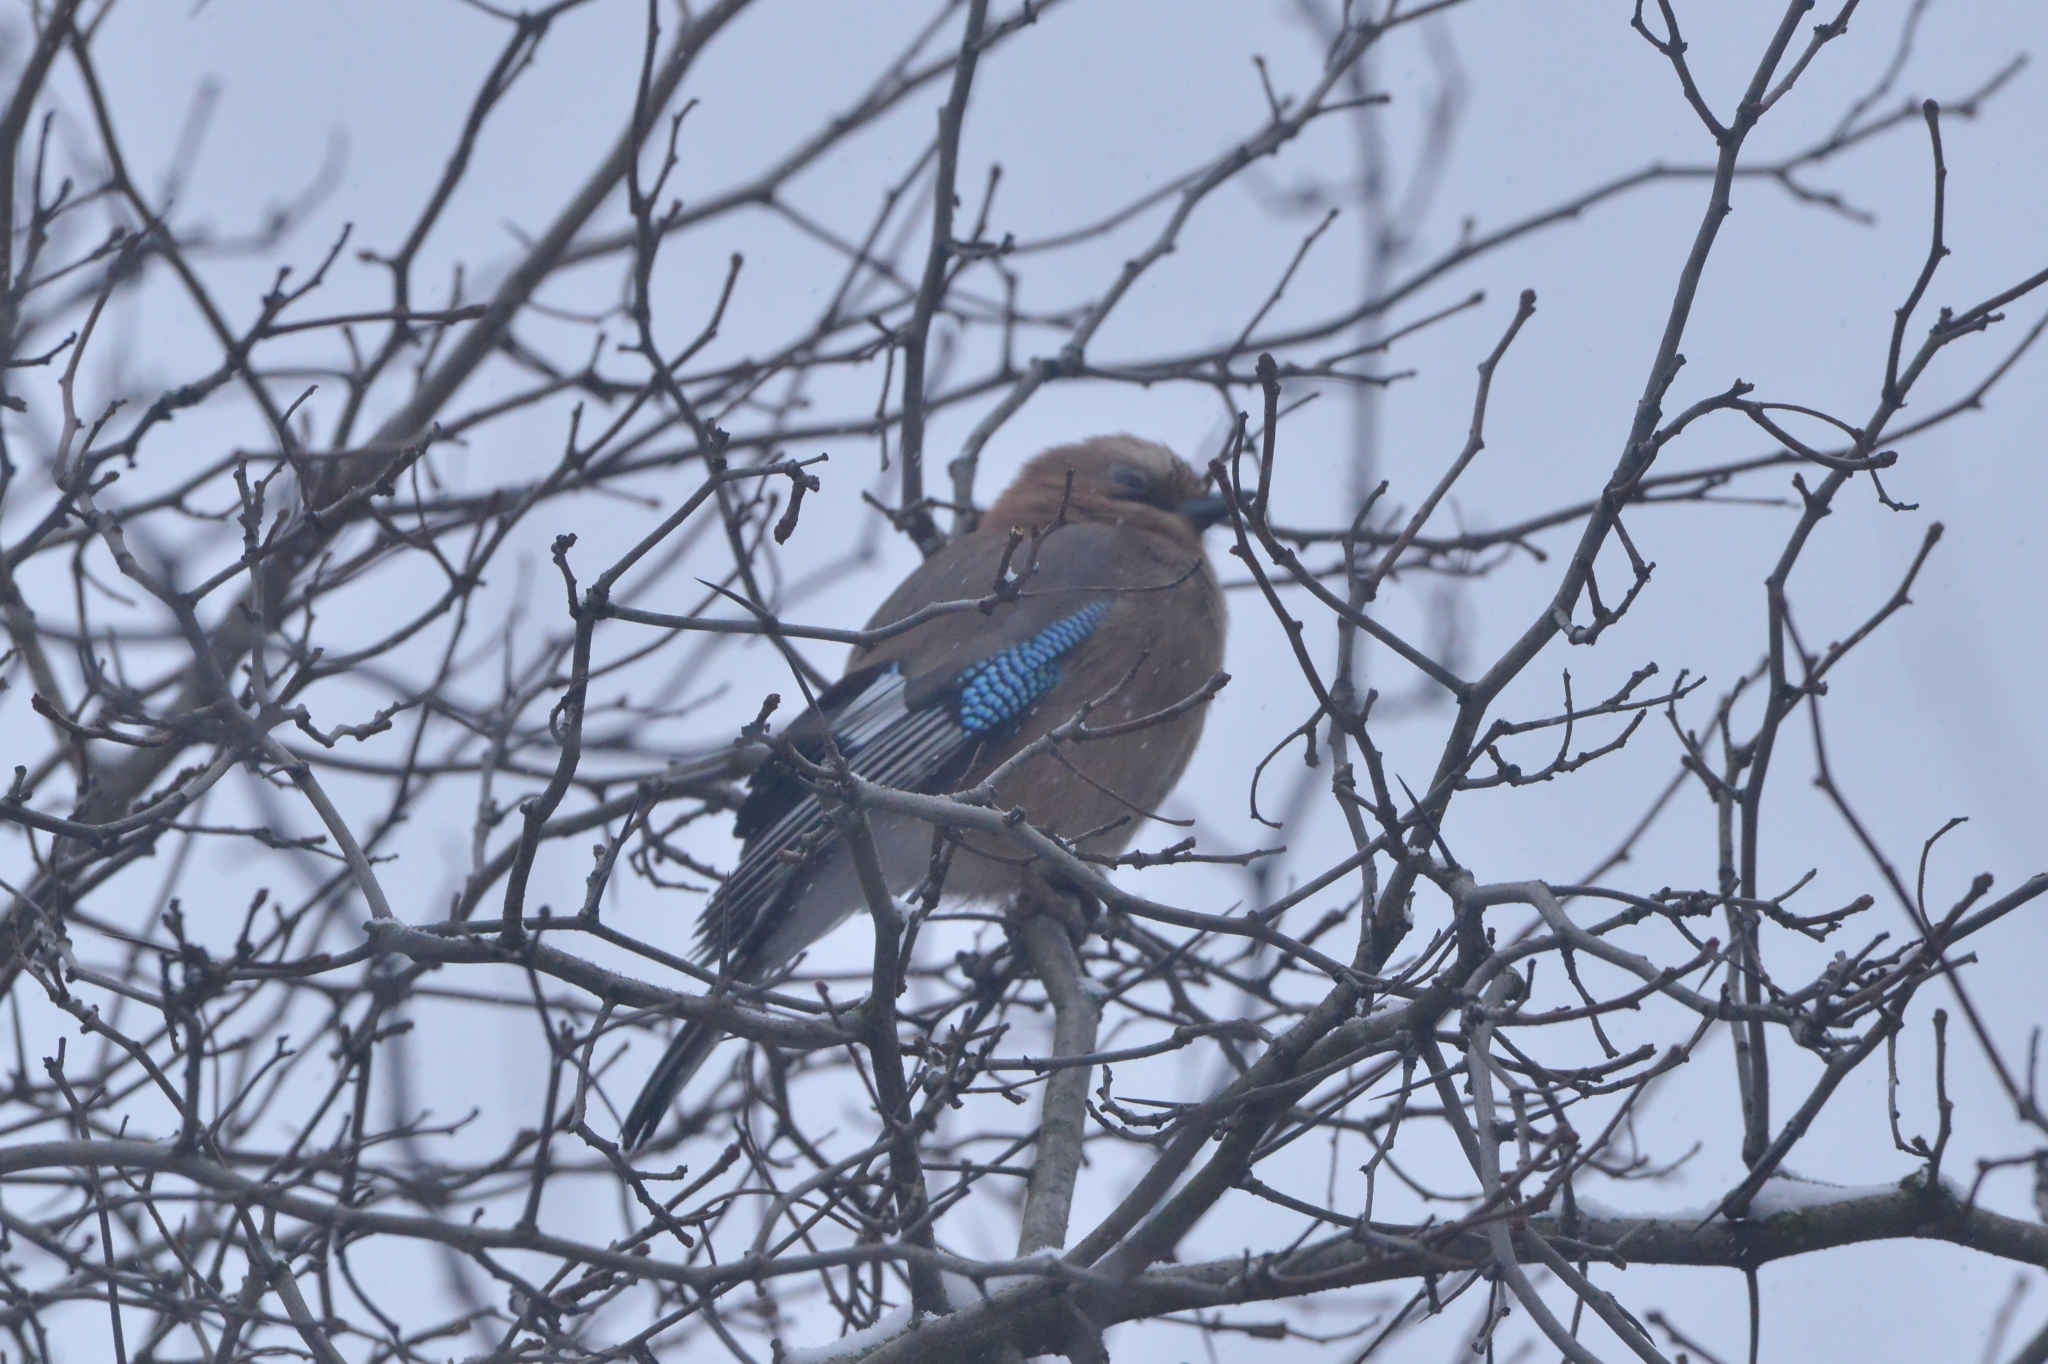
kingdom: Animalia
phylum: Chordata
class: Aves
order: Passeriformes
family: Corvidae
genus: Garrulus
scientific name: Garrulus glandarius
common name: Eurasian jay
